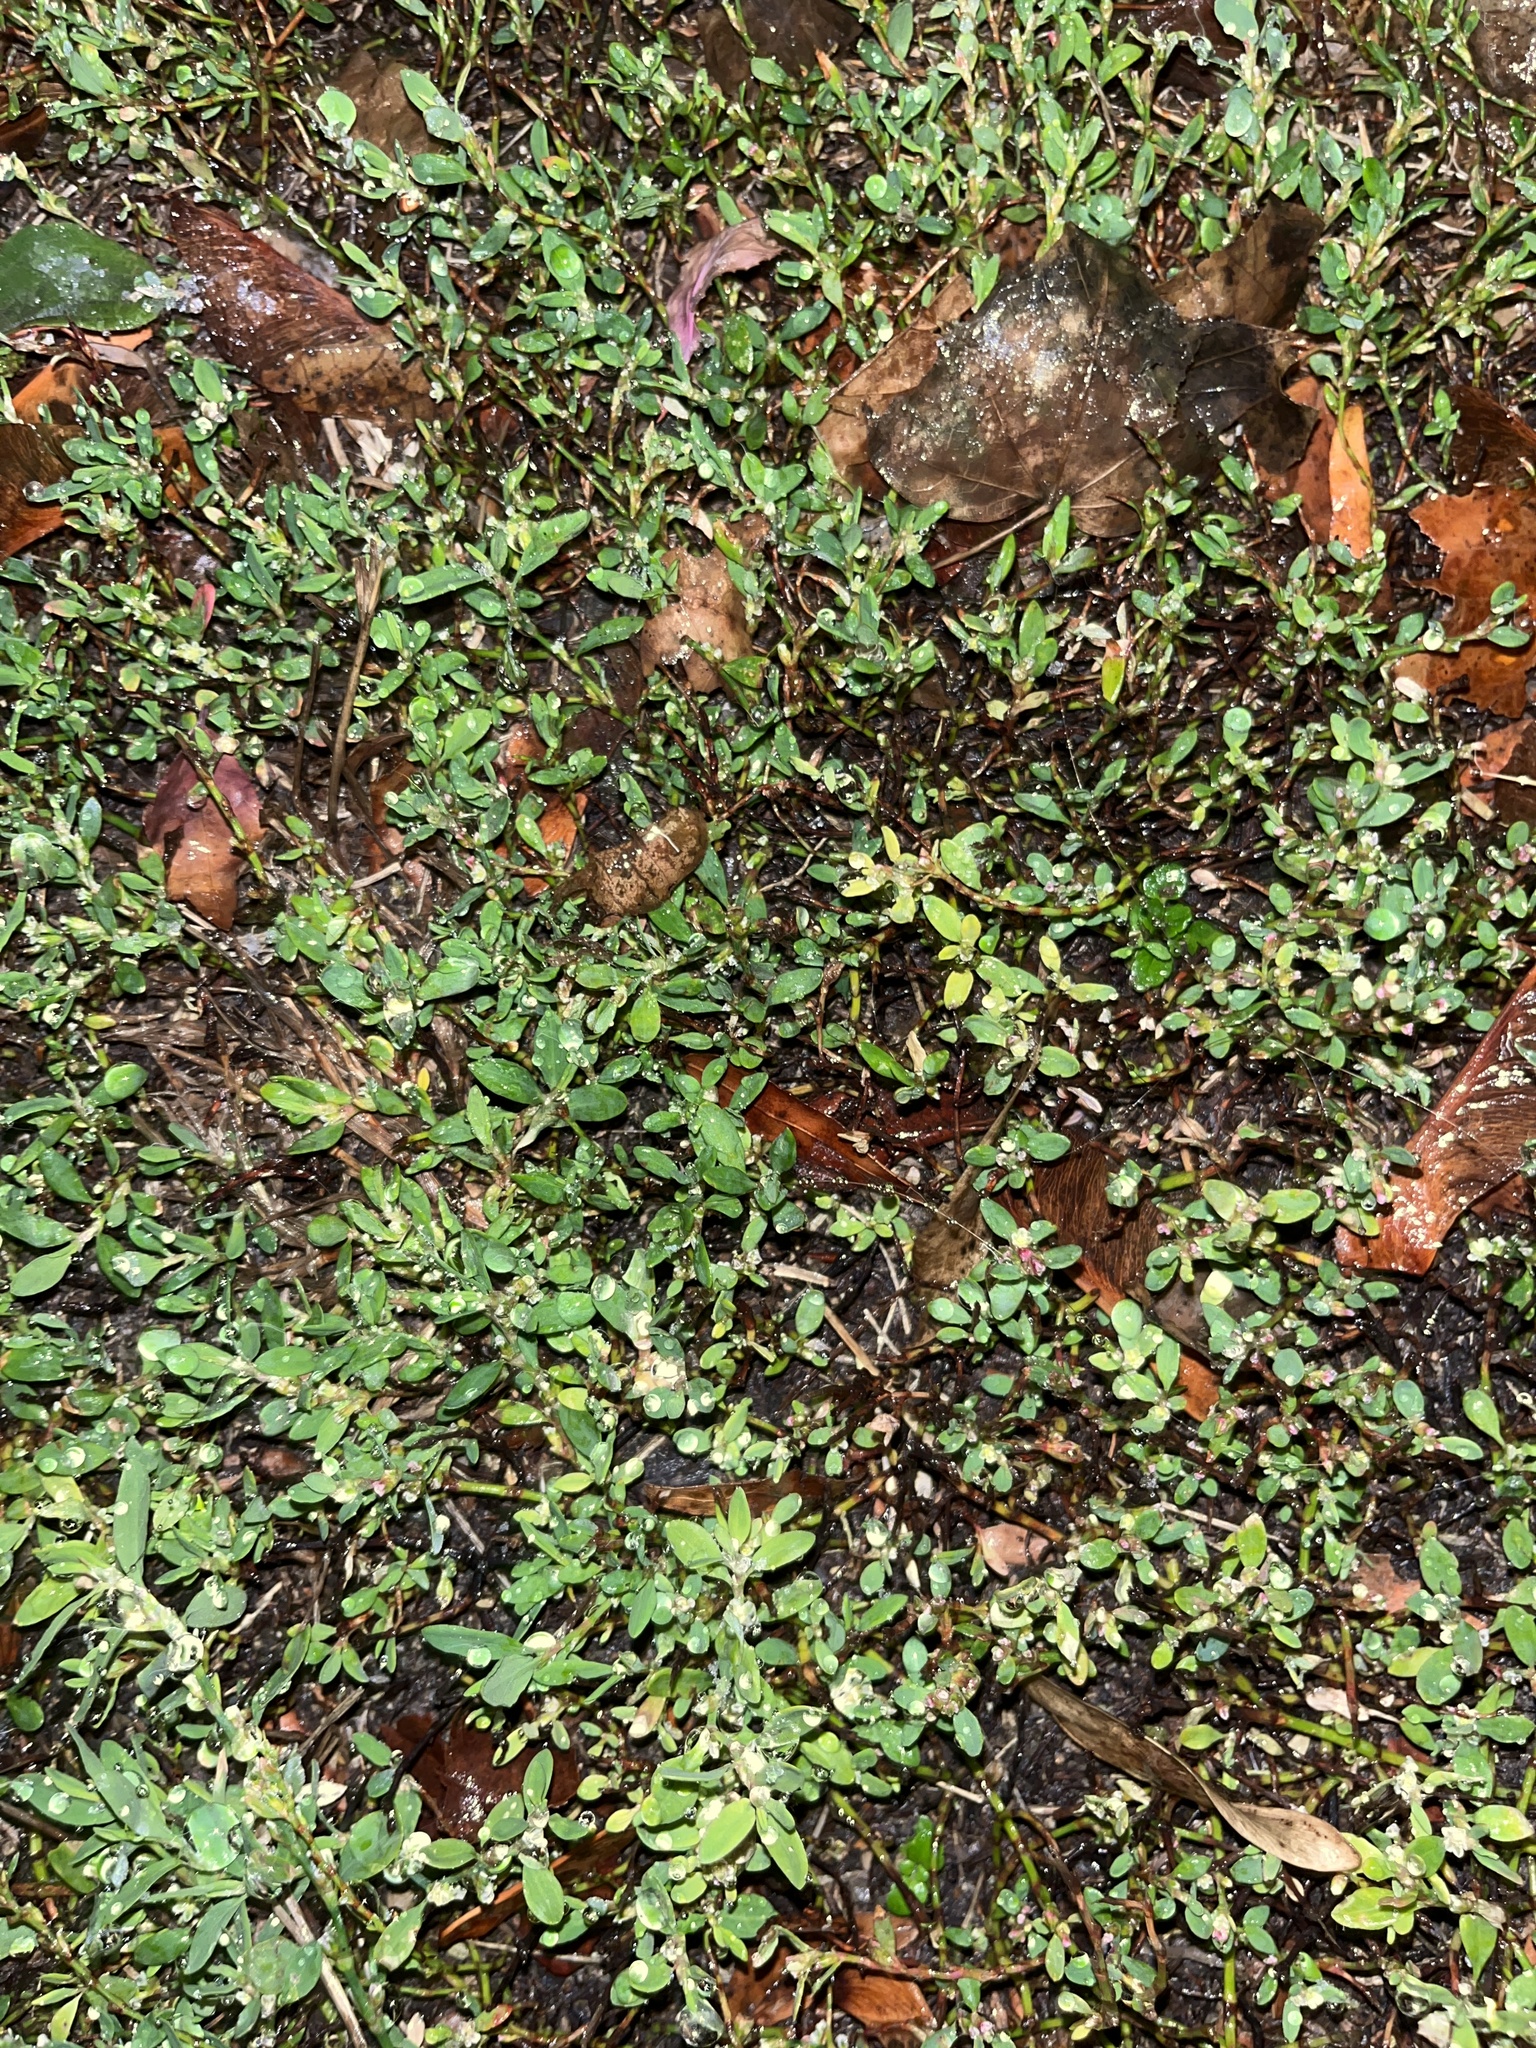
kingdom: Plantae
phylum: Tracheophyta
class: Magnoliopsida
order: Caryophyllales
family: Polygonaceae
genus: Polygonum
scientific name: Polygonum aviculare
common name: Prostrate knotweed
